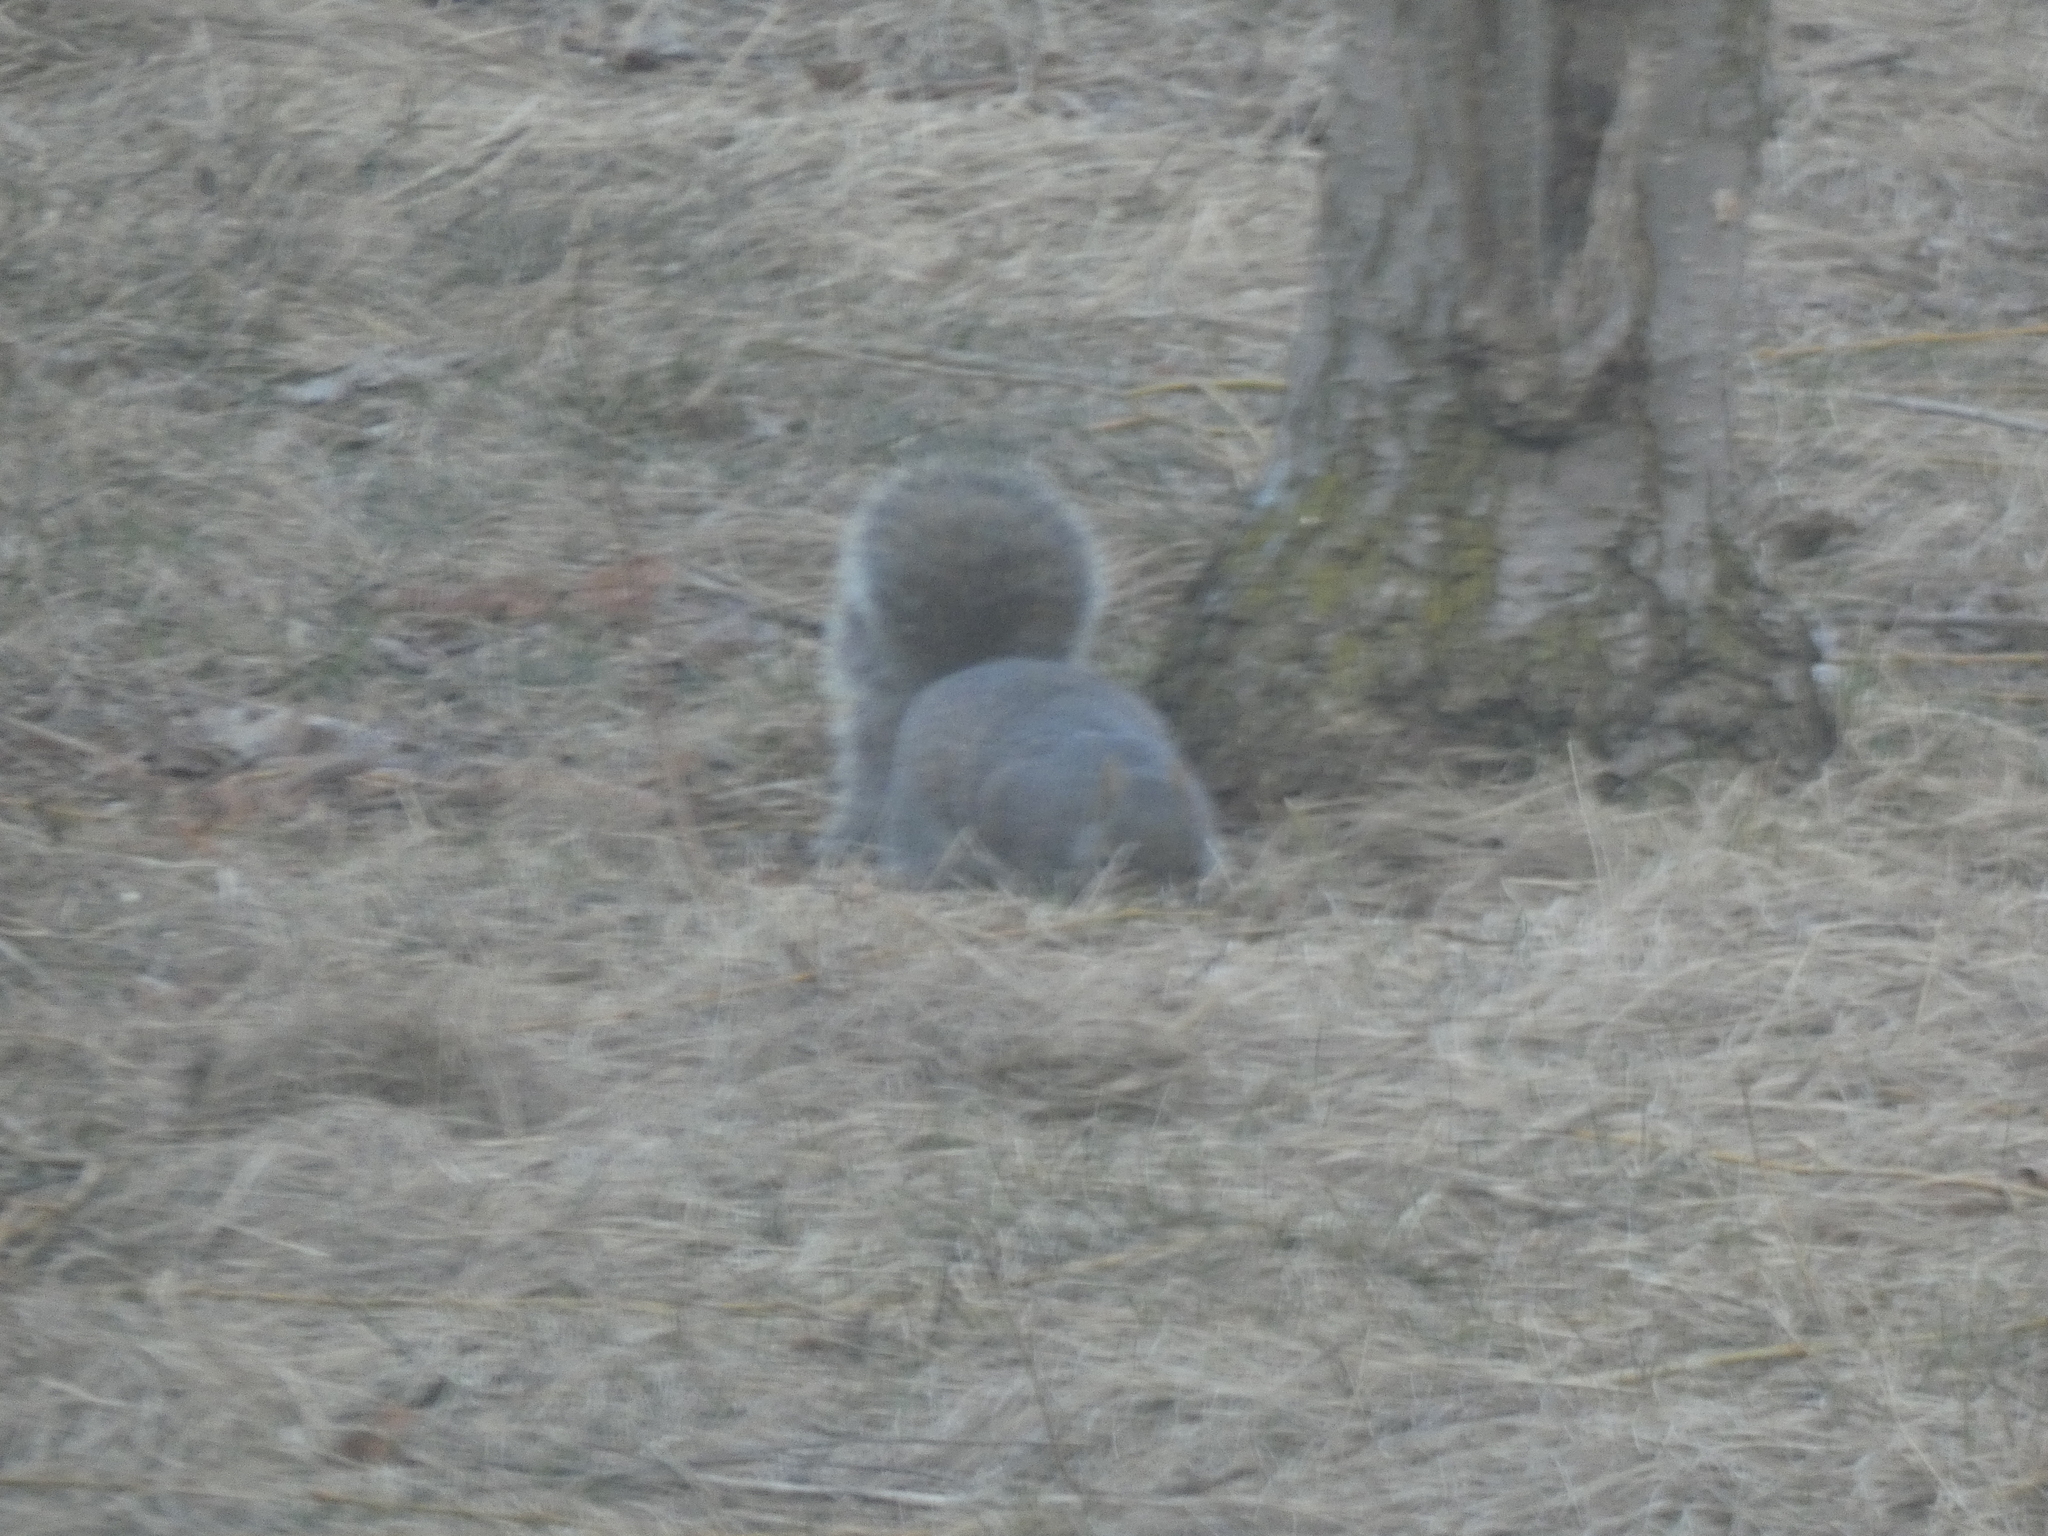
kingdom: Animalia
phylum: Chordata
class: Mammalia
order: Rodentia
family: Sciuridae
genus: Sciurus
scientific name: Sciurus carolinensis
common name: Eastern gray squirrel
